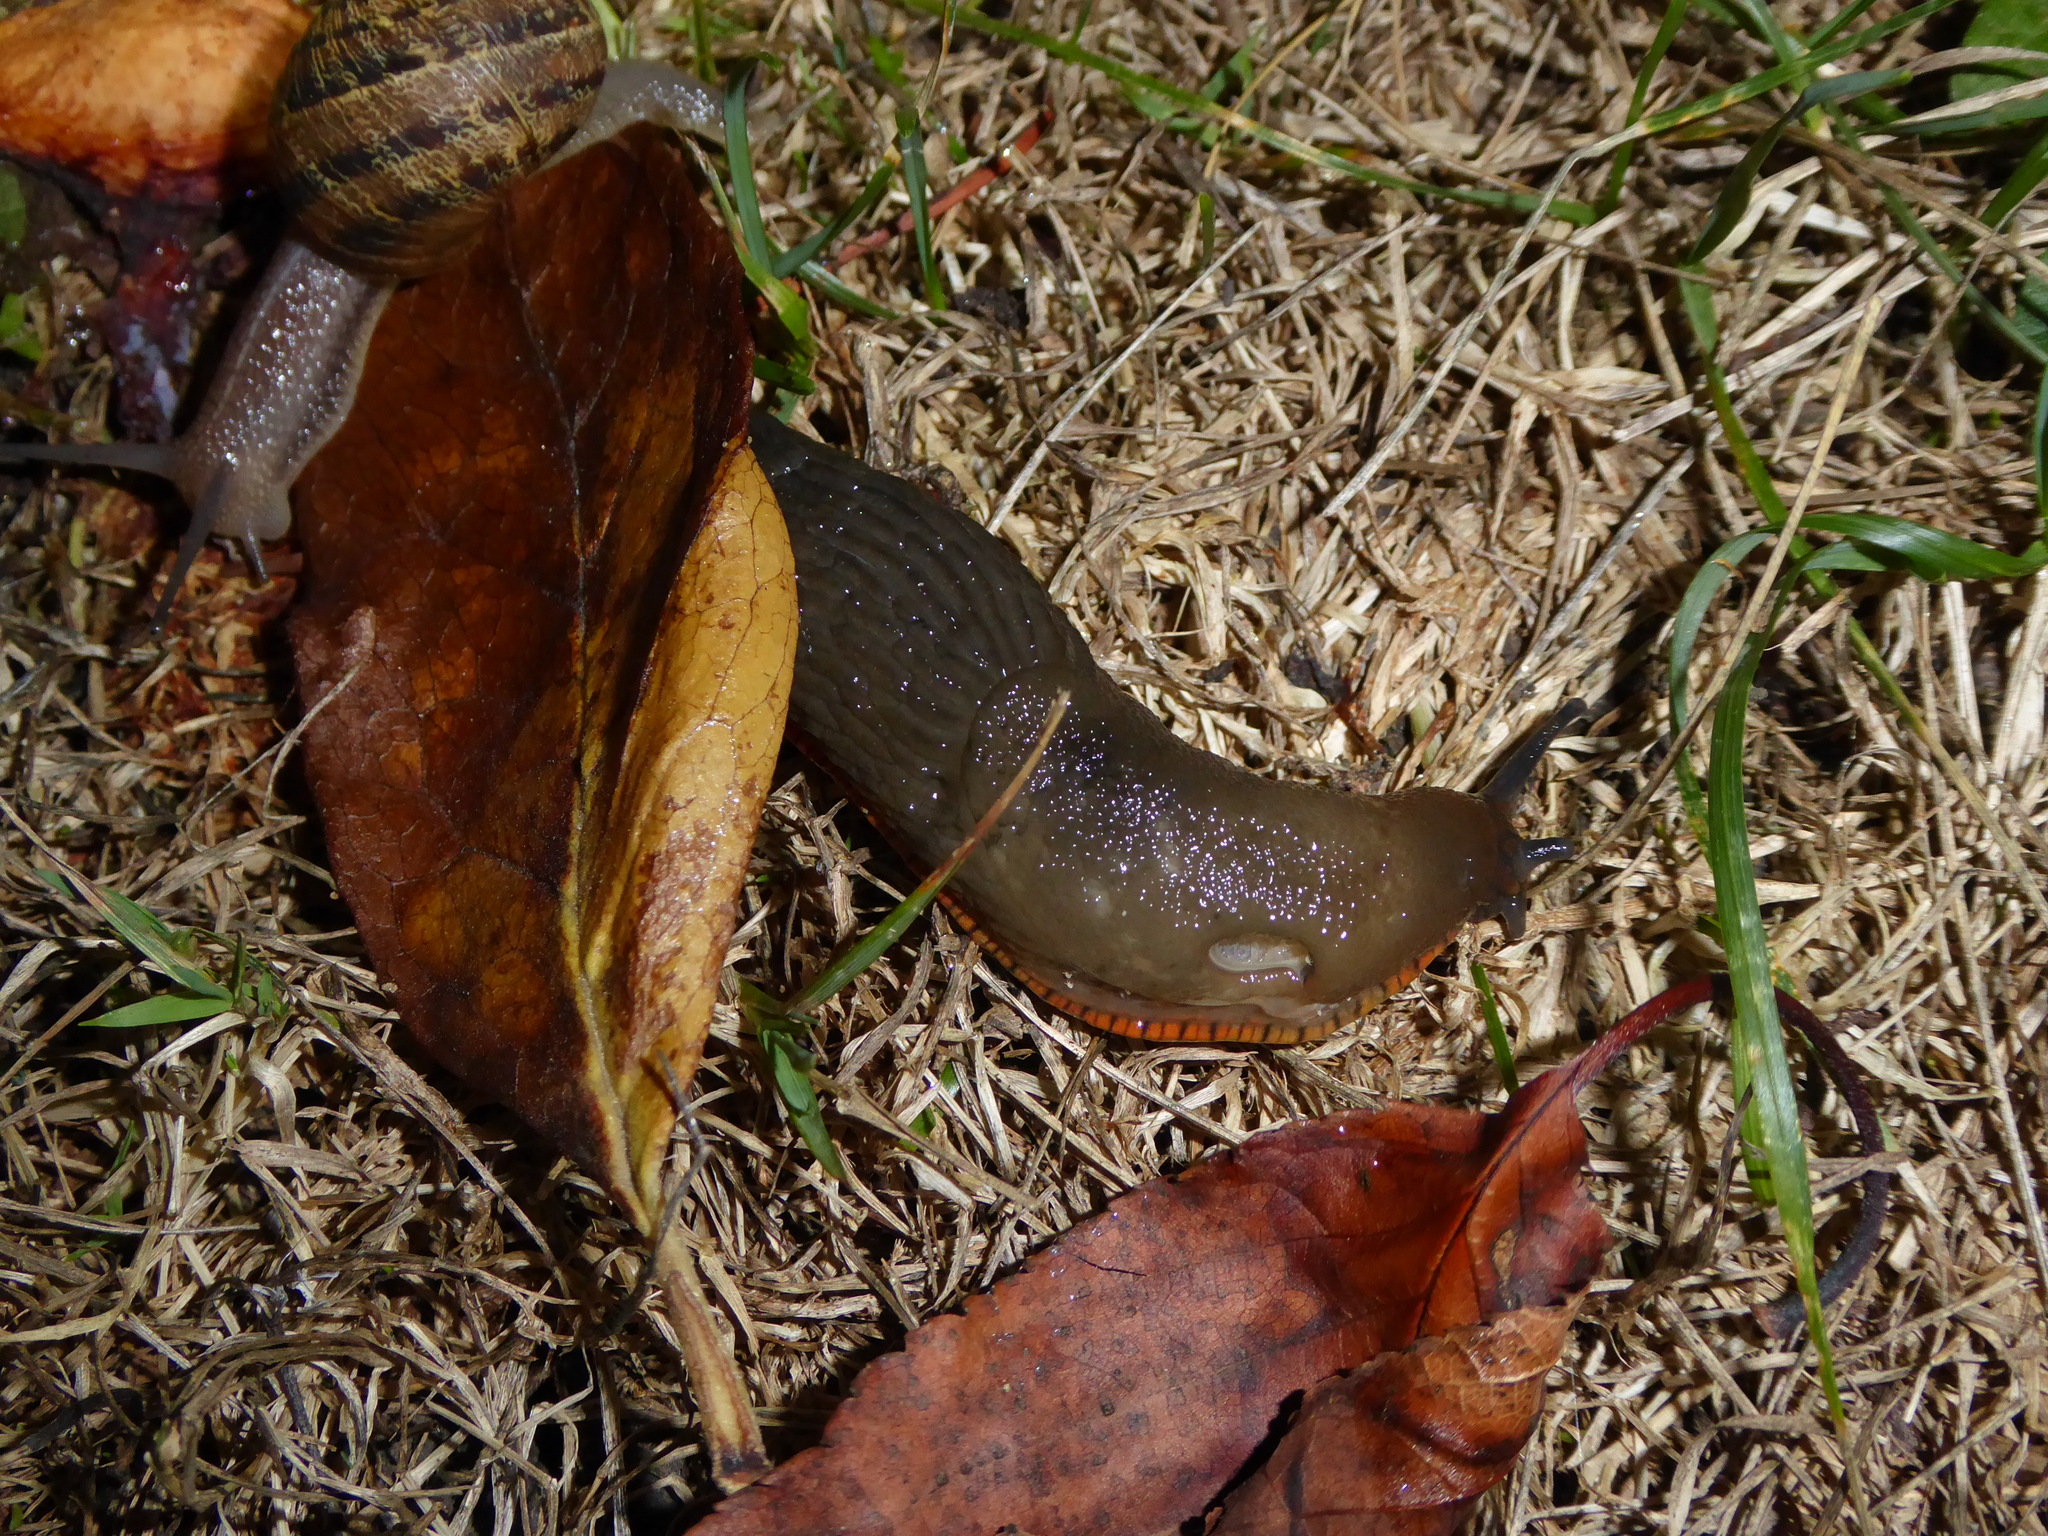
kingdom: Animalia
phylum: Mollusca
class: Gastropoda
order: Stylommatophora
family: Arionidae
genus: Arion
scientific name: Arion
